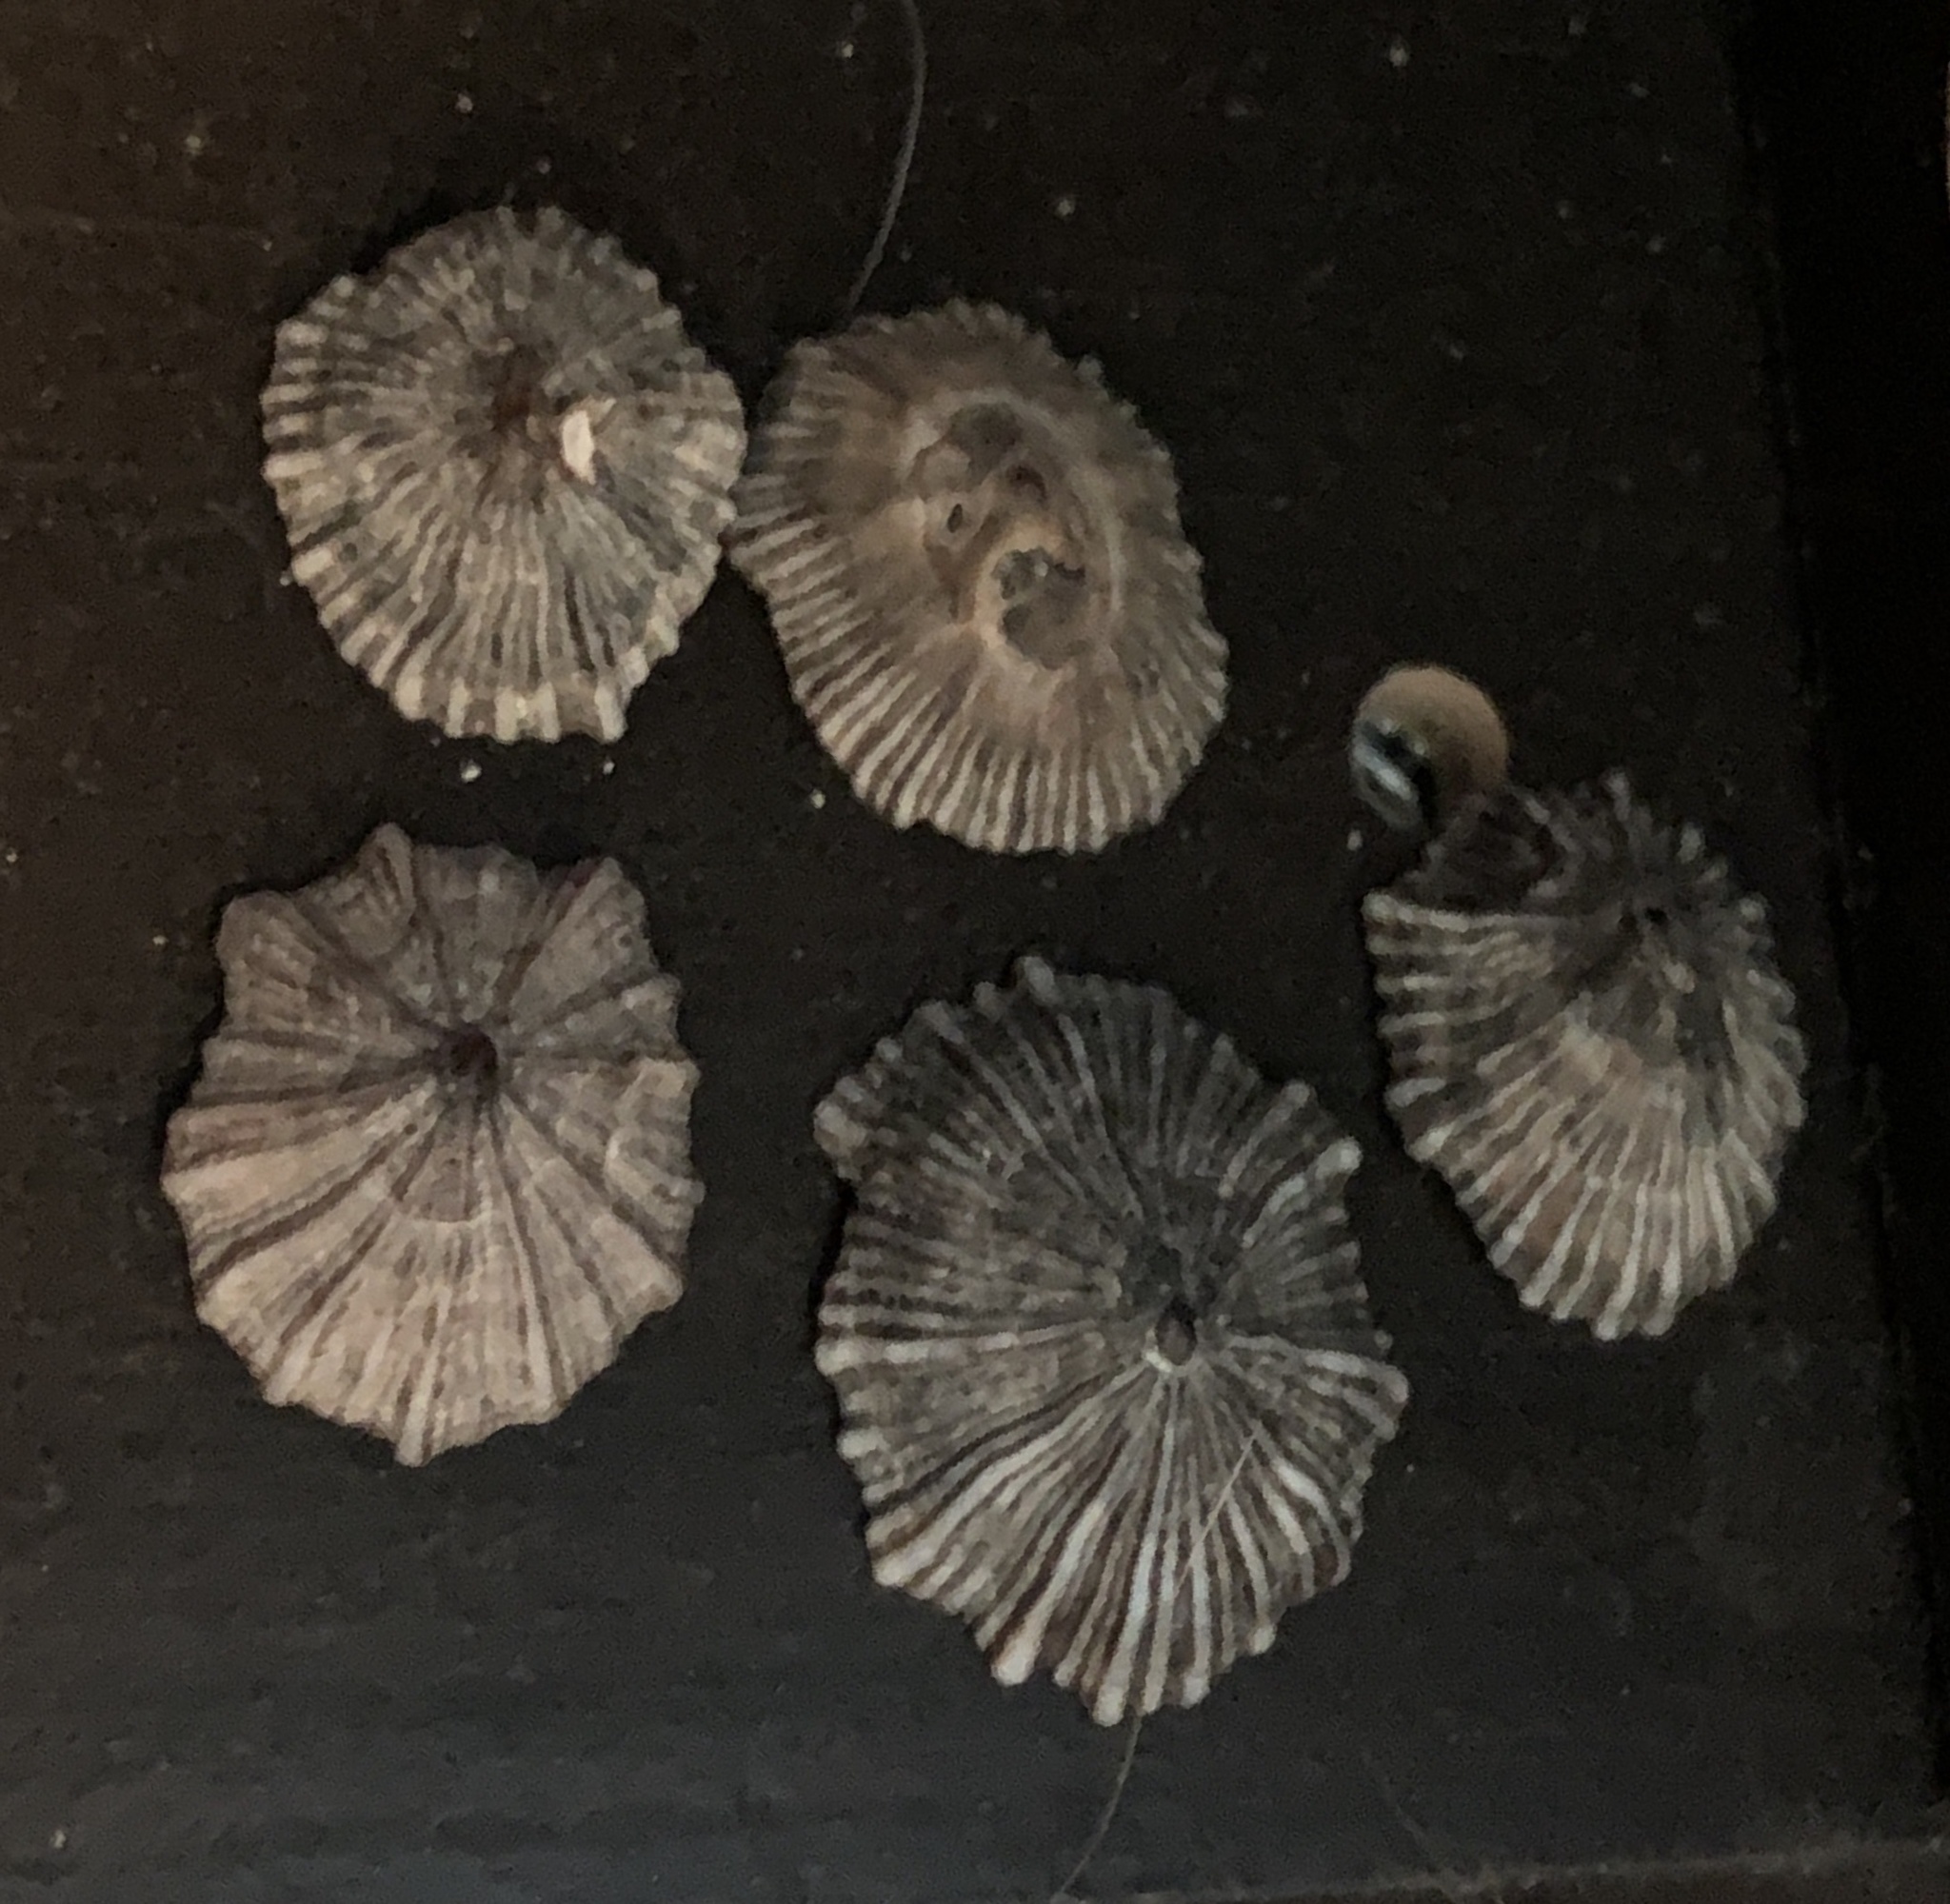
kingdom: Animalia
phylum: Mollusca
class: Gastropoda
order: Siphonariida
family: Siphonariidae
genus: Siphonaria
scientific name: Siphonaria normalis
